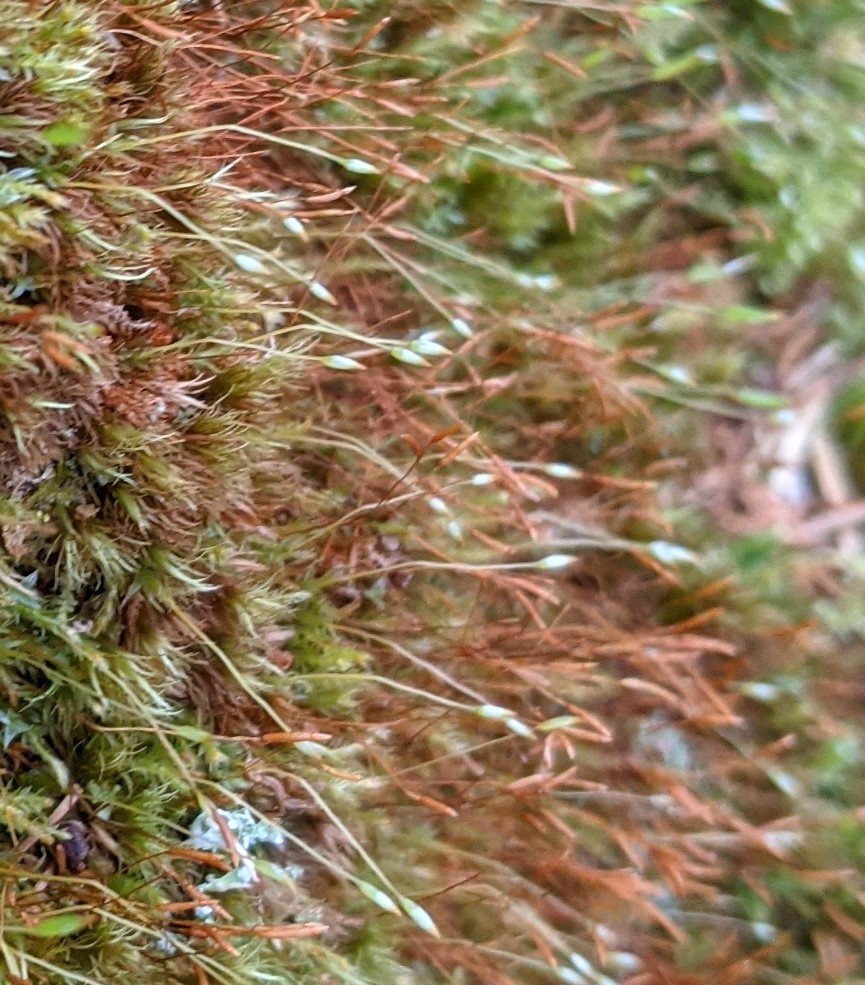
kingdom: Plantae
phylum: Bryophyta
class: Polytrichopsida
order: Tetraphidales
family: Tetraphidaceae
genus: Tetraphis
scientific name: Tetraphis pellucida
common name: Common four-toothed moss
